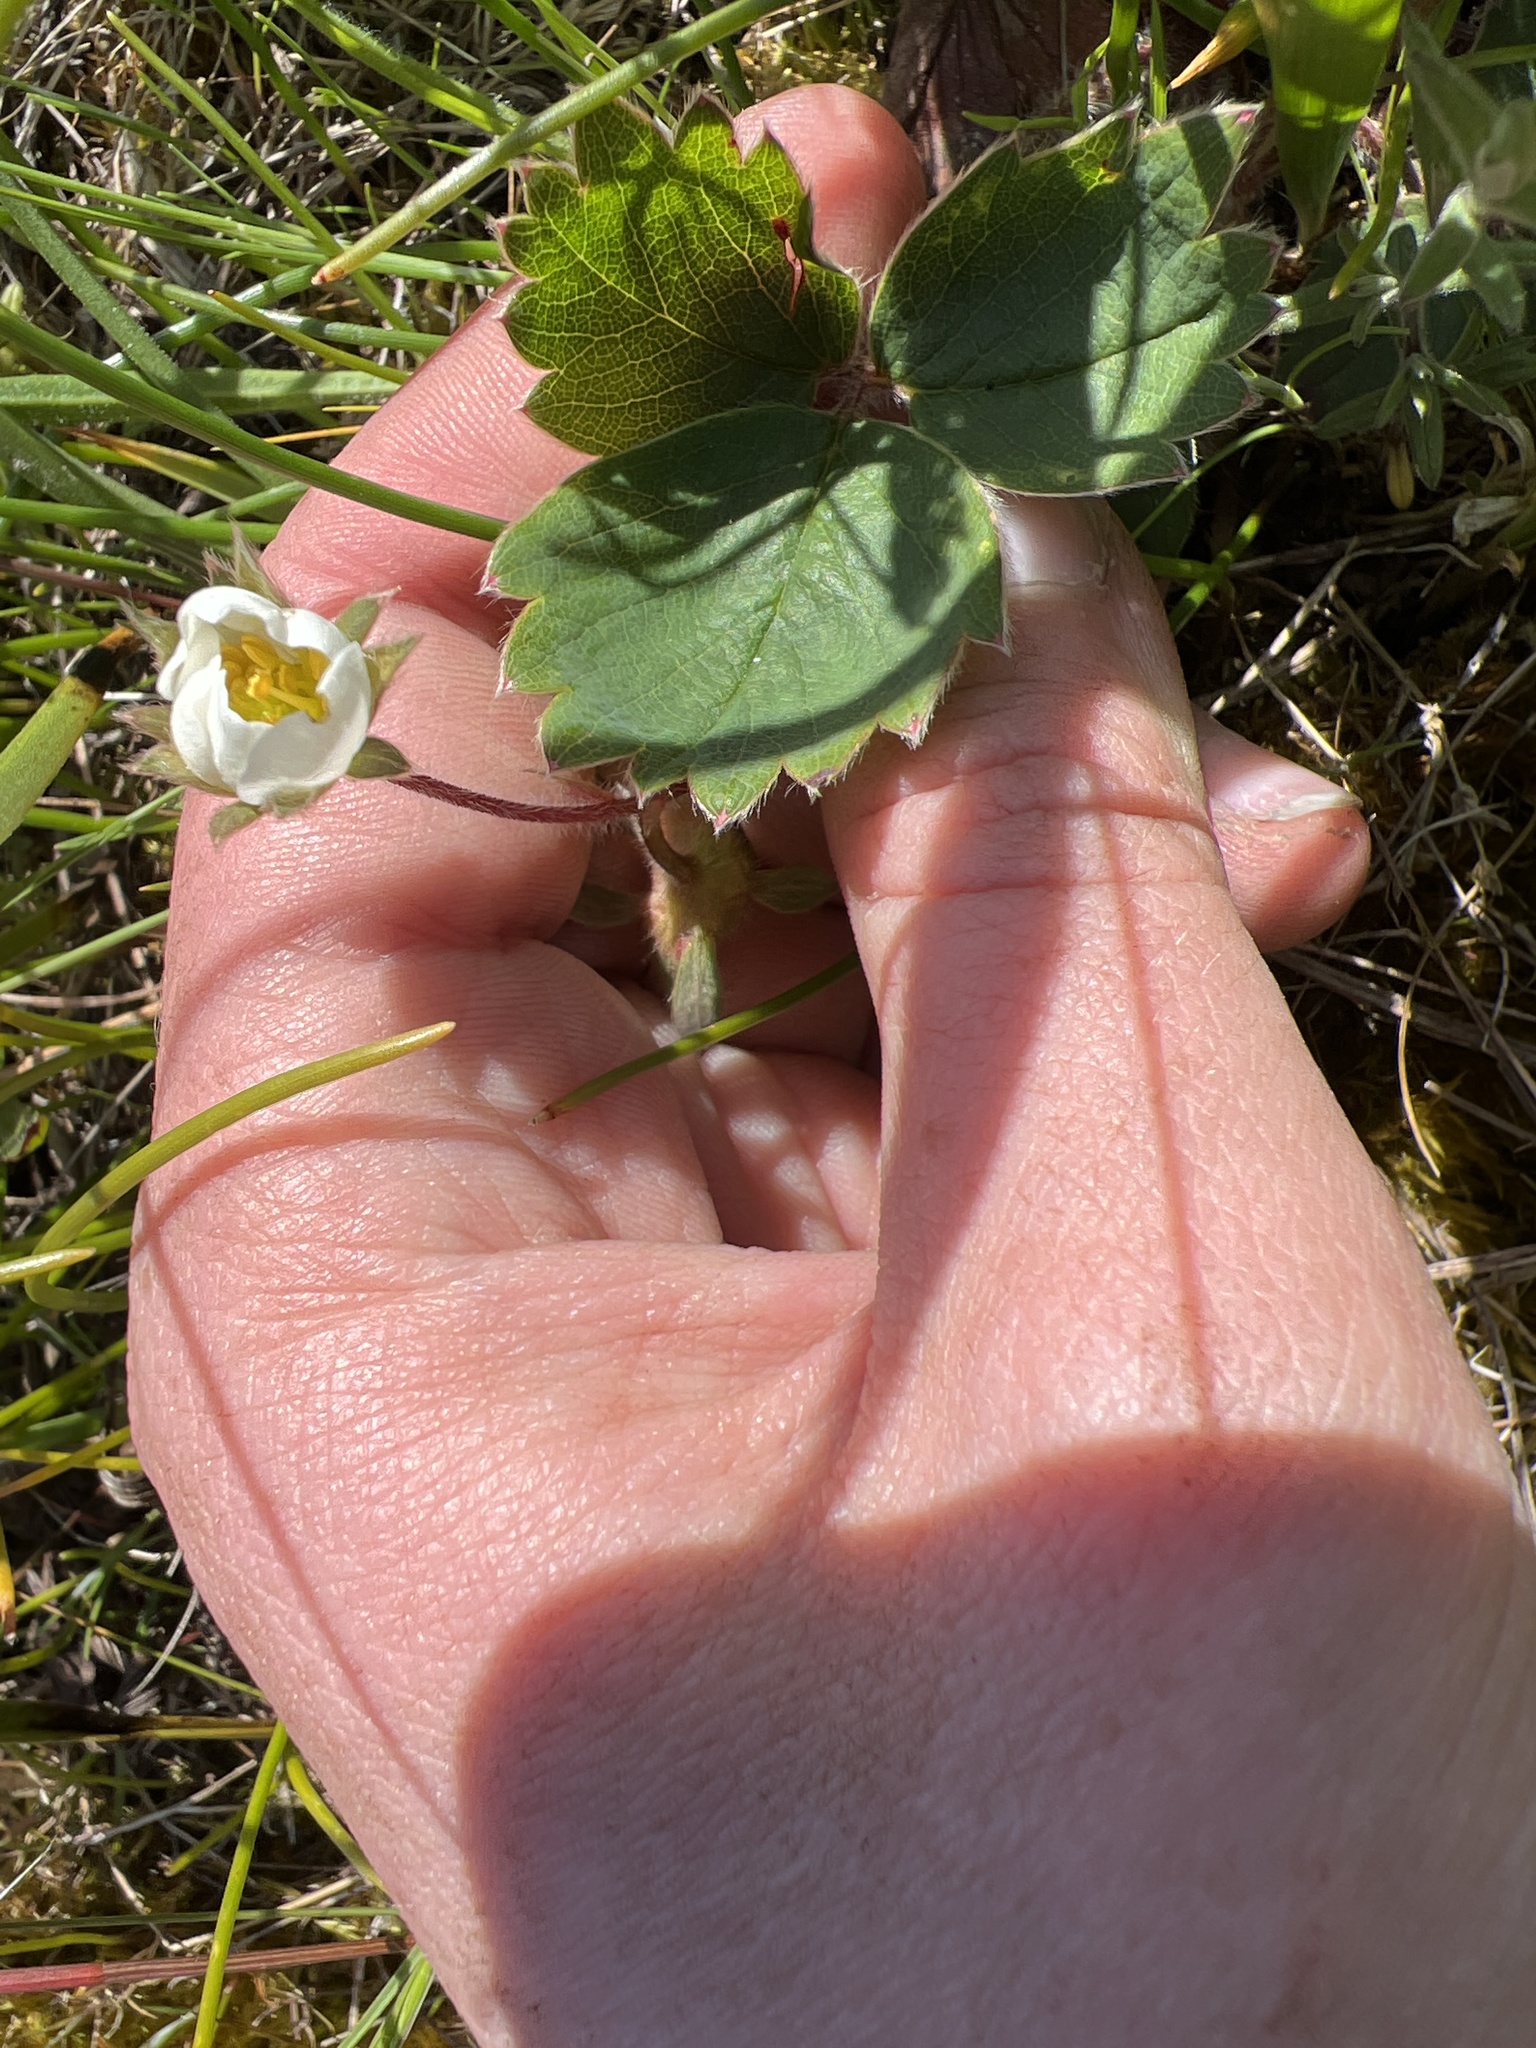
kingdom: Plantae
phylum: Tracheophyta
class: Magnoliopsida
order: Rosales
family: Rosaceae
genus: Fragaria
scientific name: Fragaria virginiana
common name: Thickleaved wild strawberry
